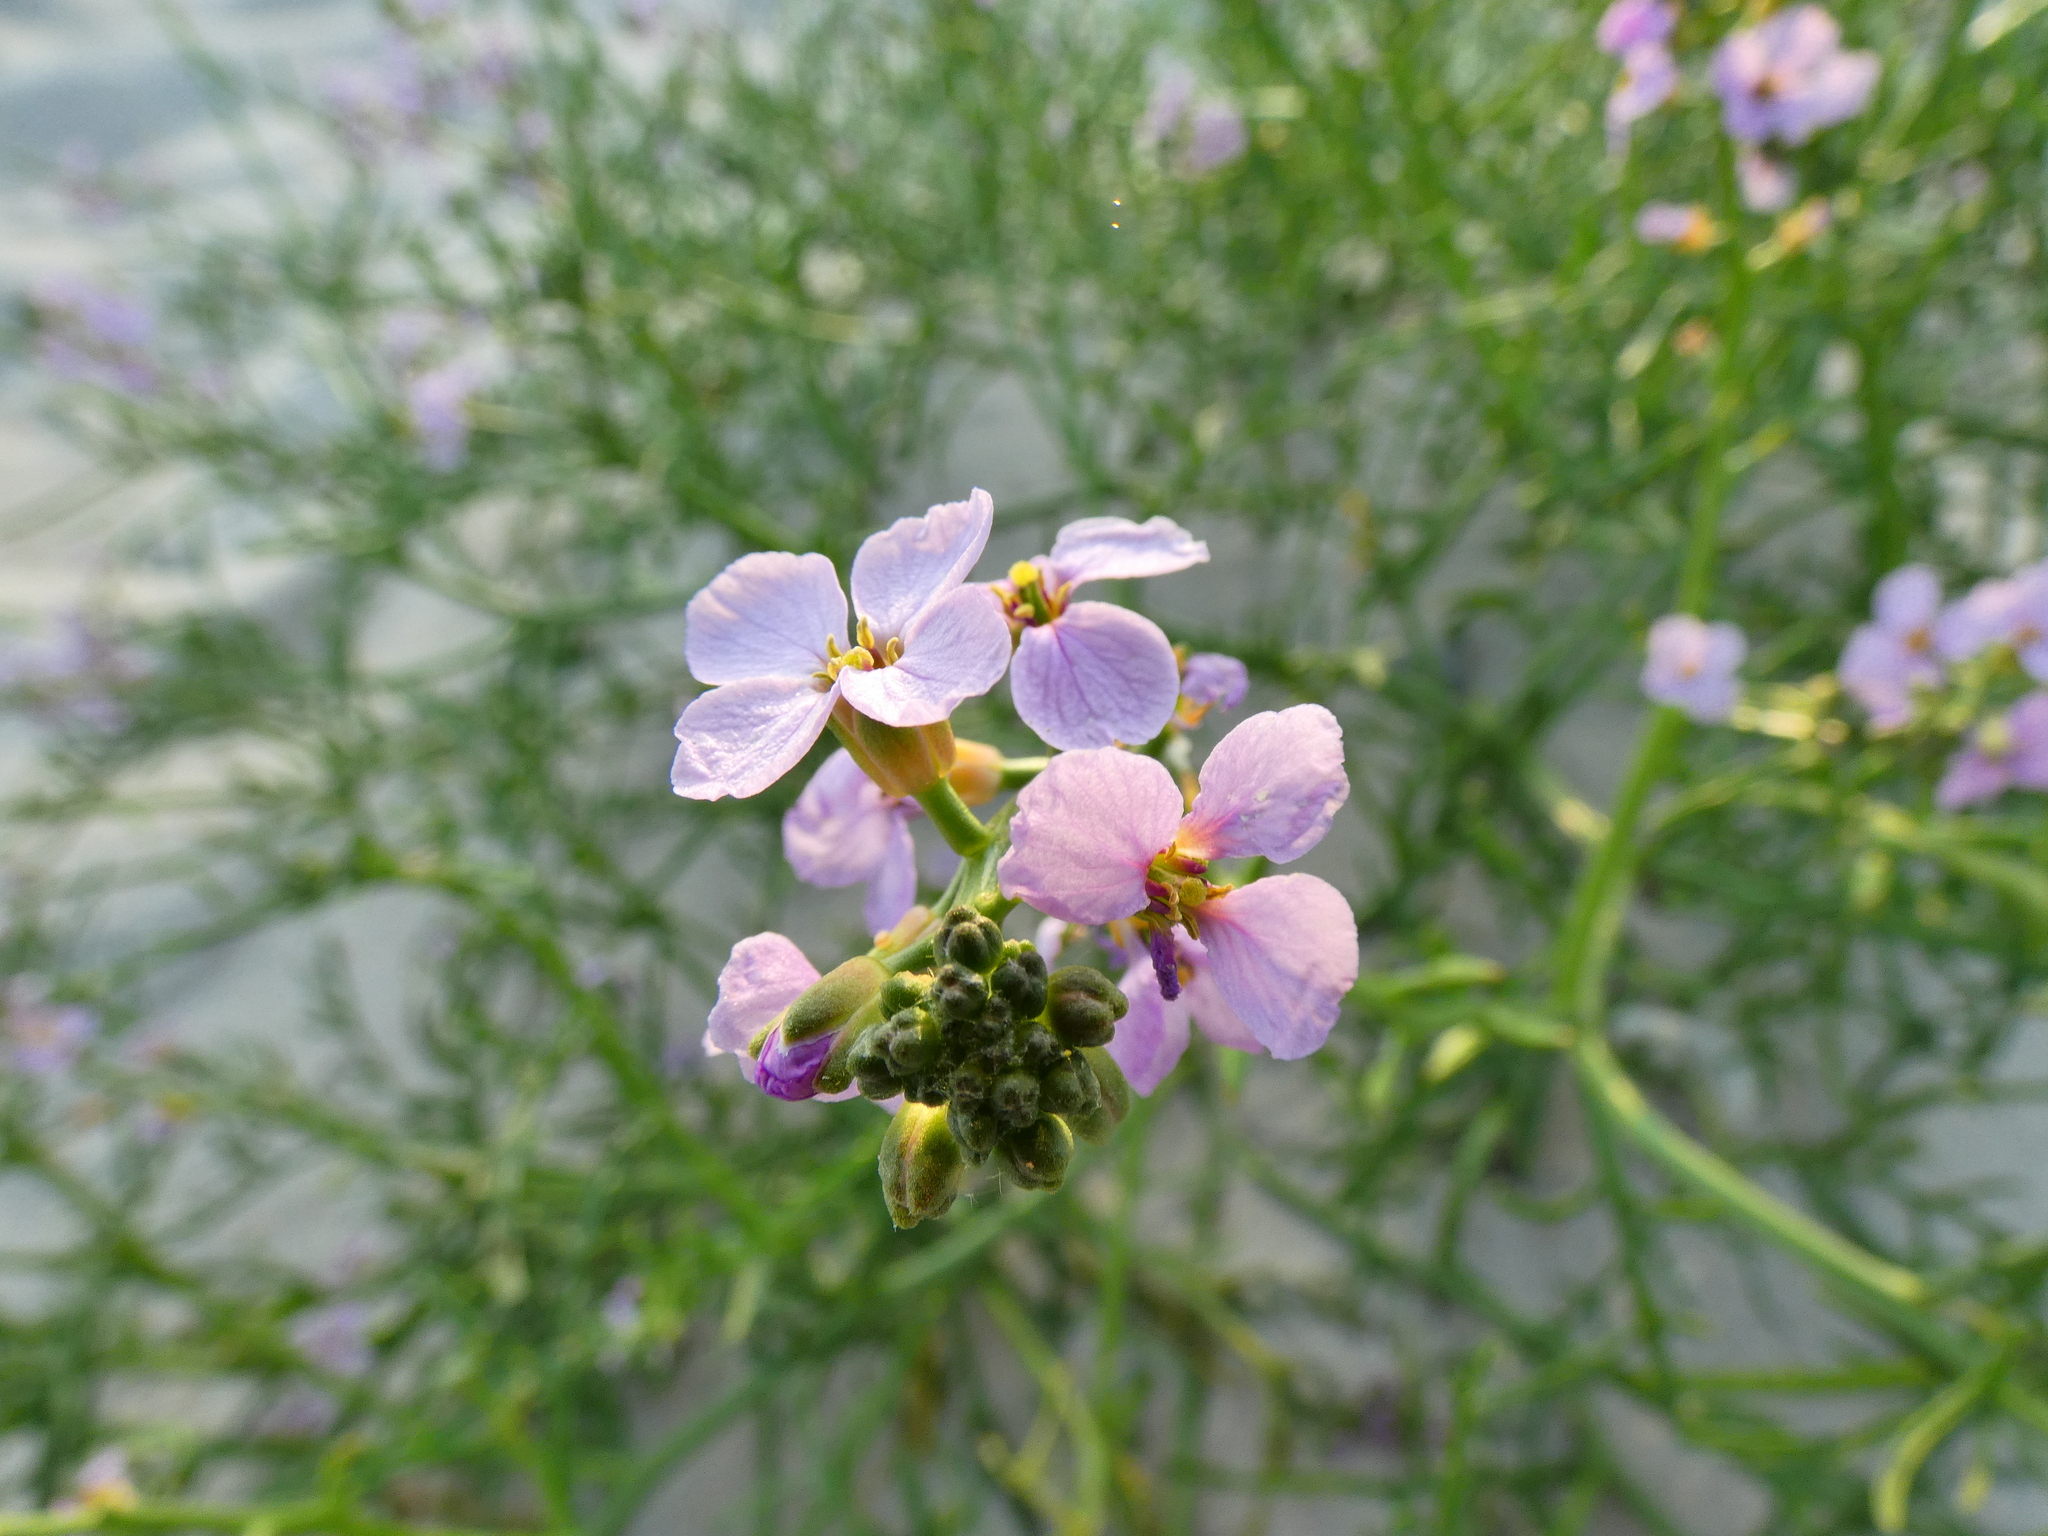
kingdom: Plantae
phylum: Tracheophyta
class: Magnoliopsida
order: Brassicales
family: Brassicaceae
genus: Cakile
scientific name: Cakile maritima
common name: Sea rocket
